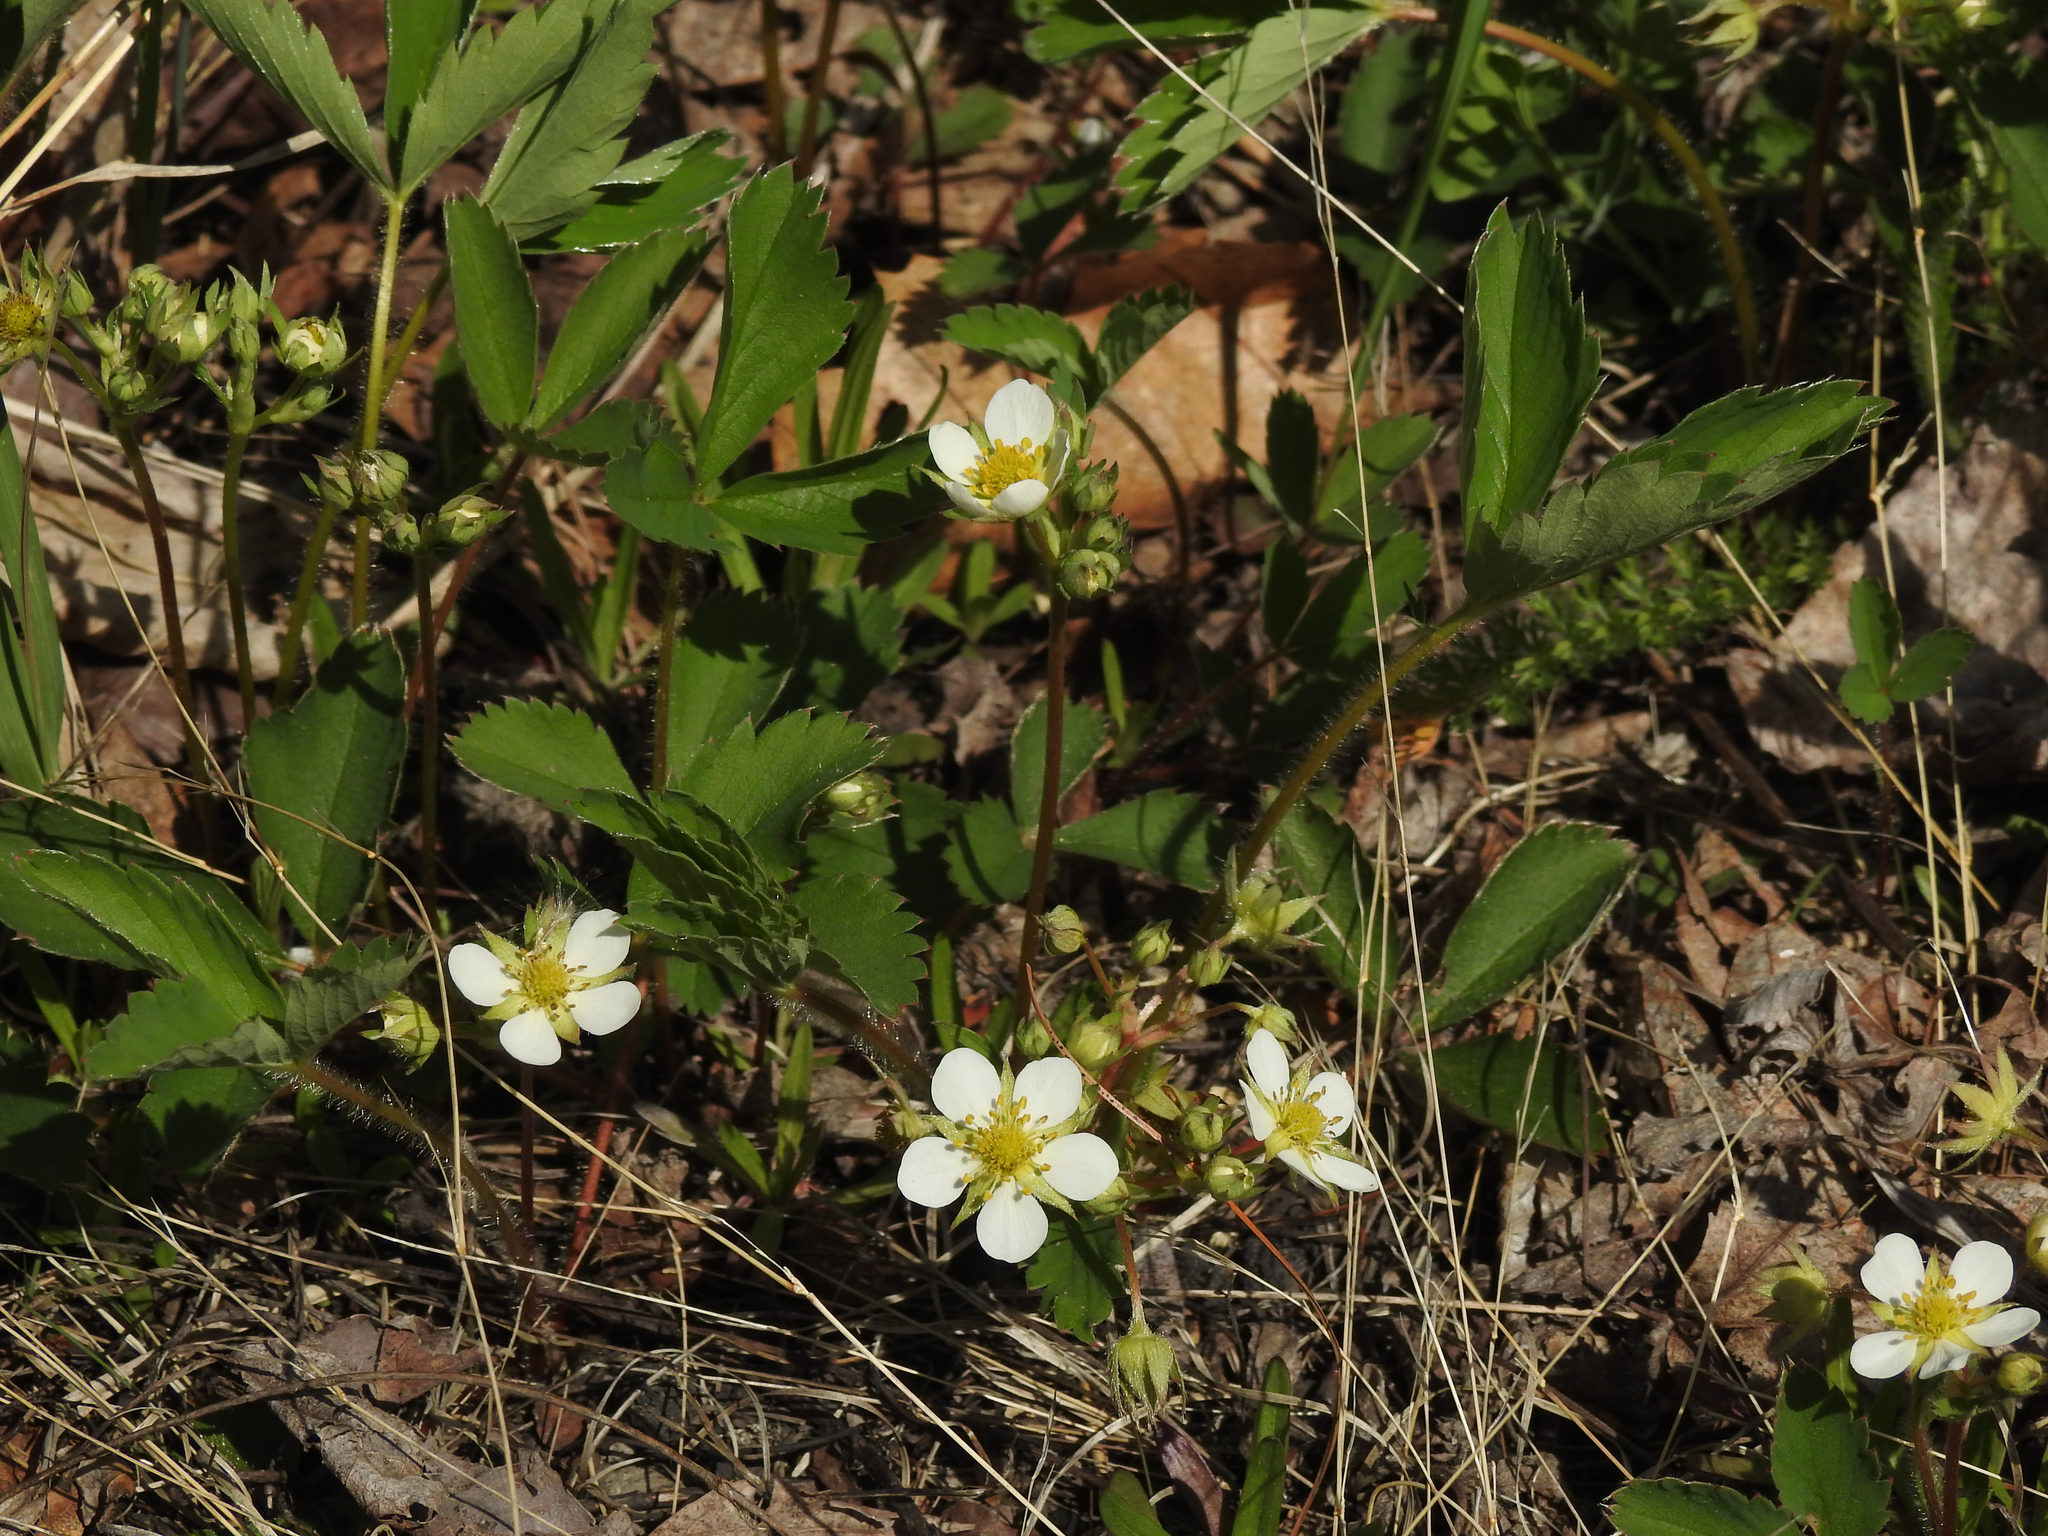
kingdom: Plantae
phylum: Tracheophyta
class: Magnoliopsida
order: Rosales
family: Rosaceae
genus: Fragaria
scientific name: Fragaria virginiana
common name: Thickleaved wild strawberry
